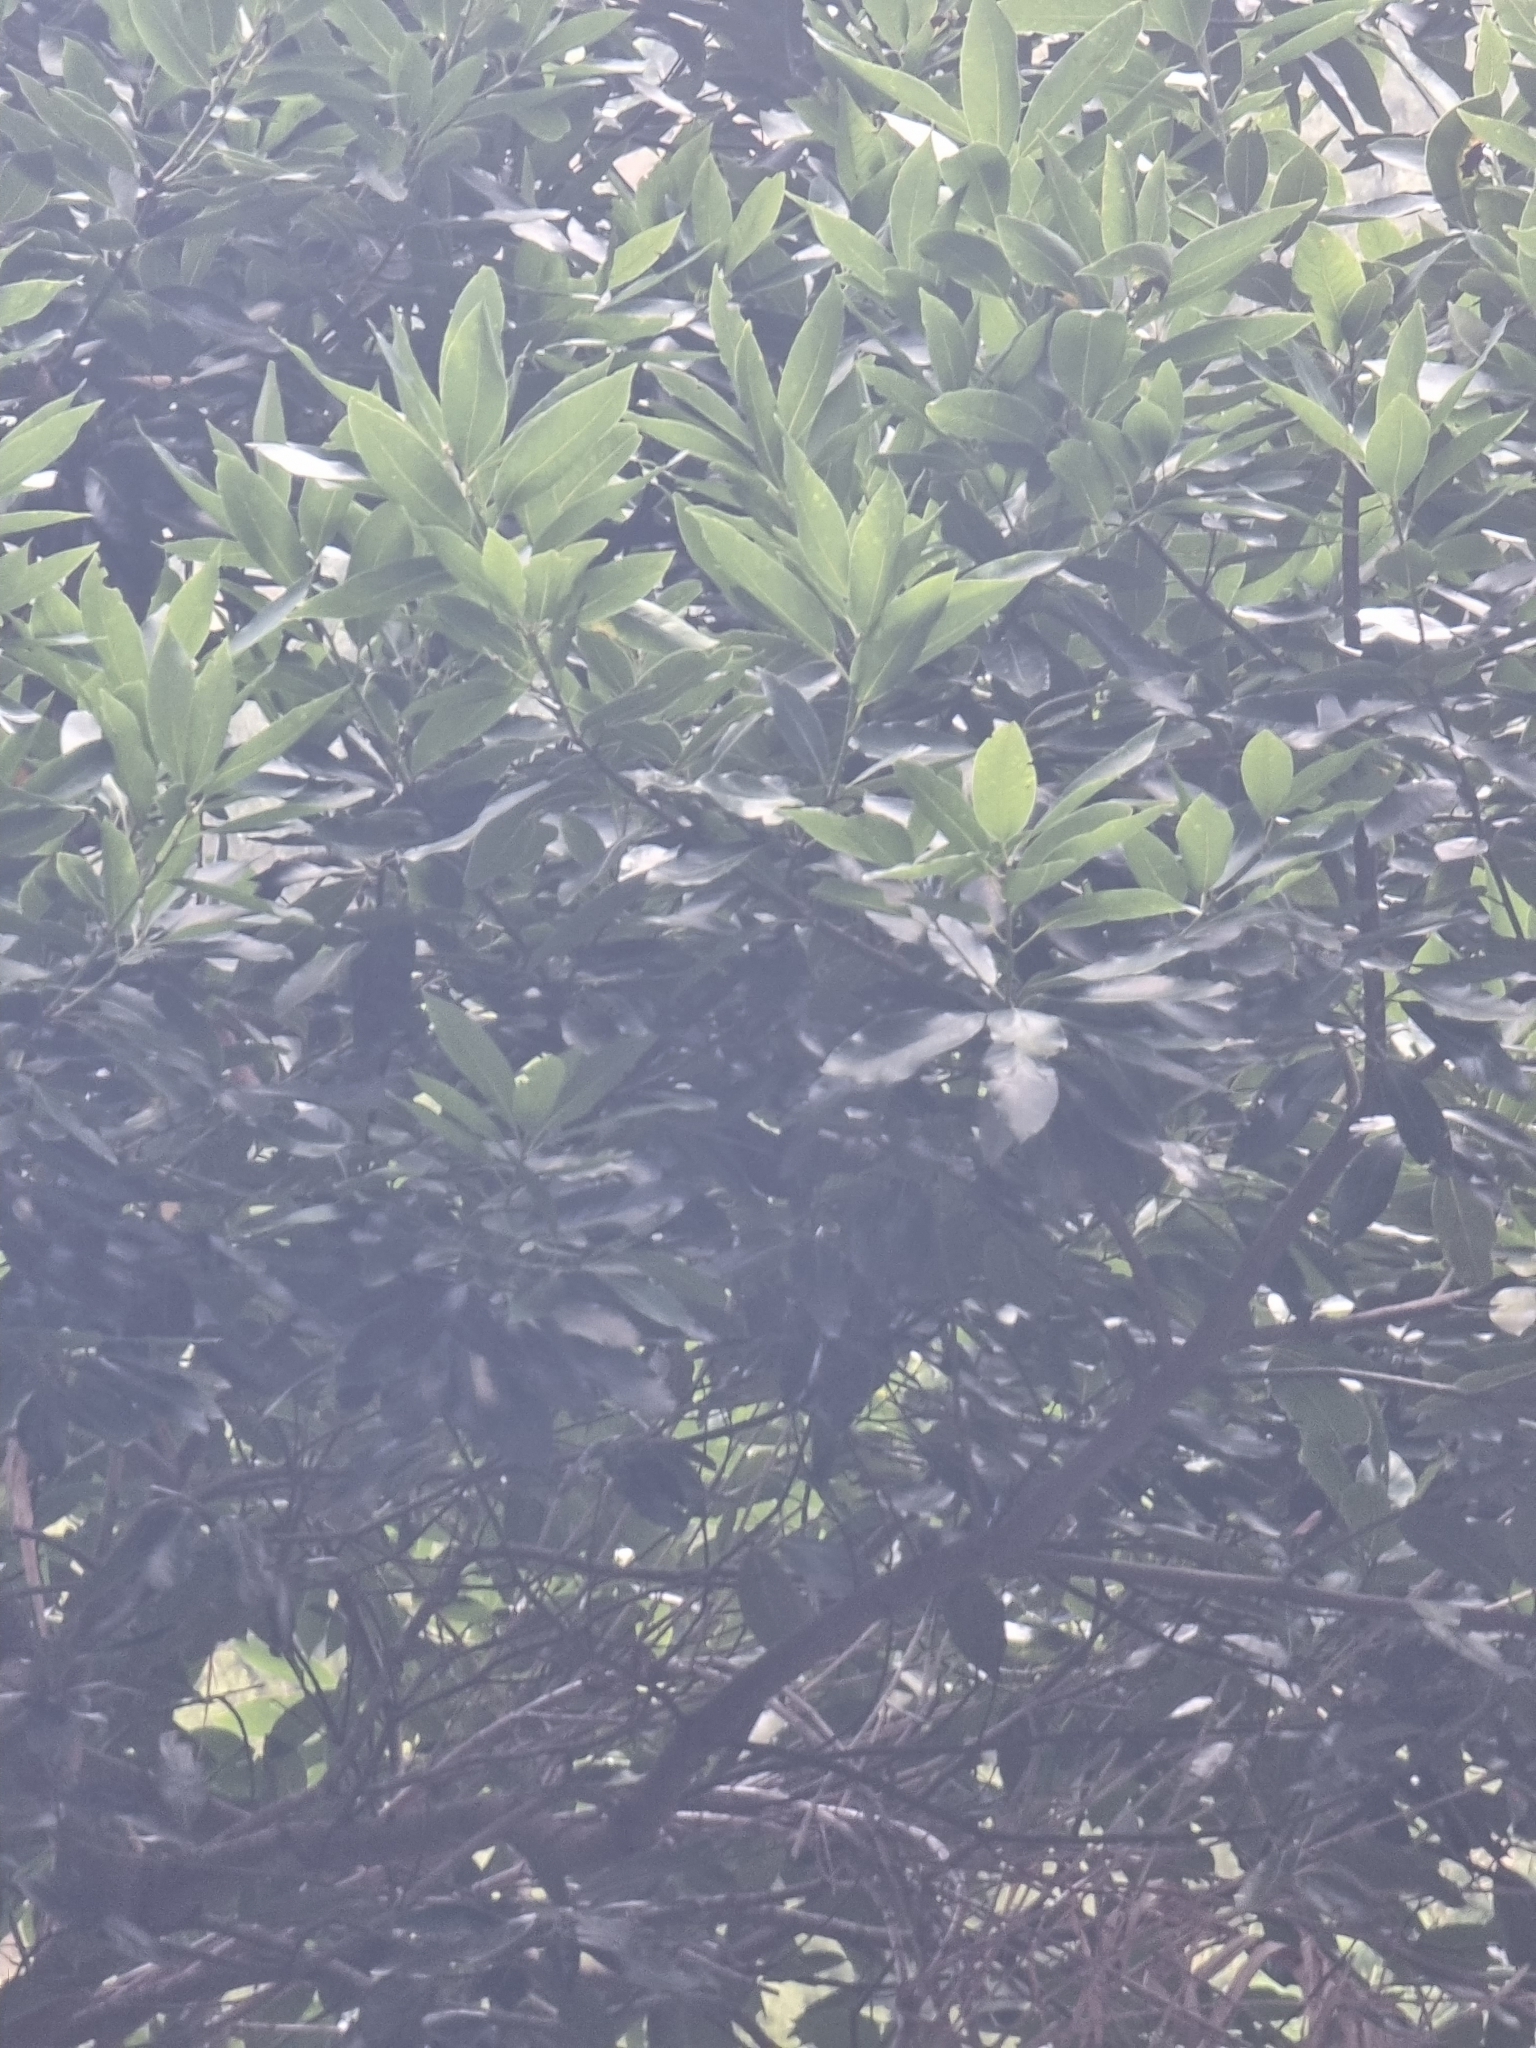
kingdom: Plantae
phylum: Tracheophyta
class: Magnoliopsida
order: Laurales
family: Lauraceae
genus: Laurus
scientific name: Laurus novocanariensis
